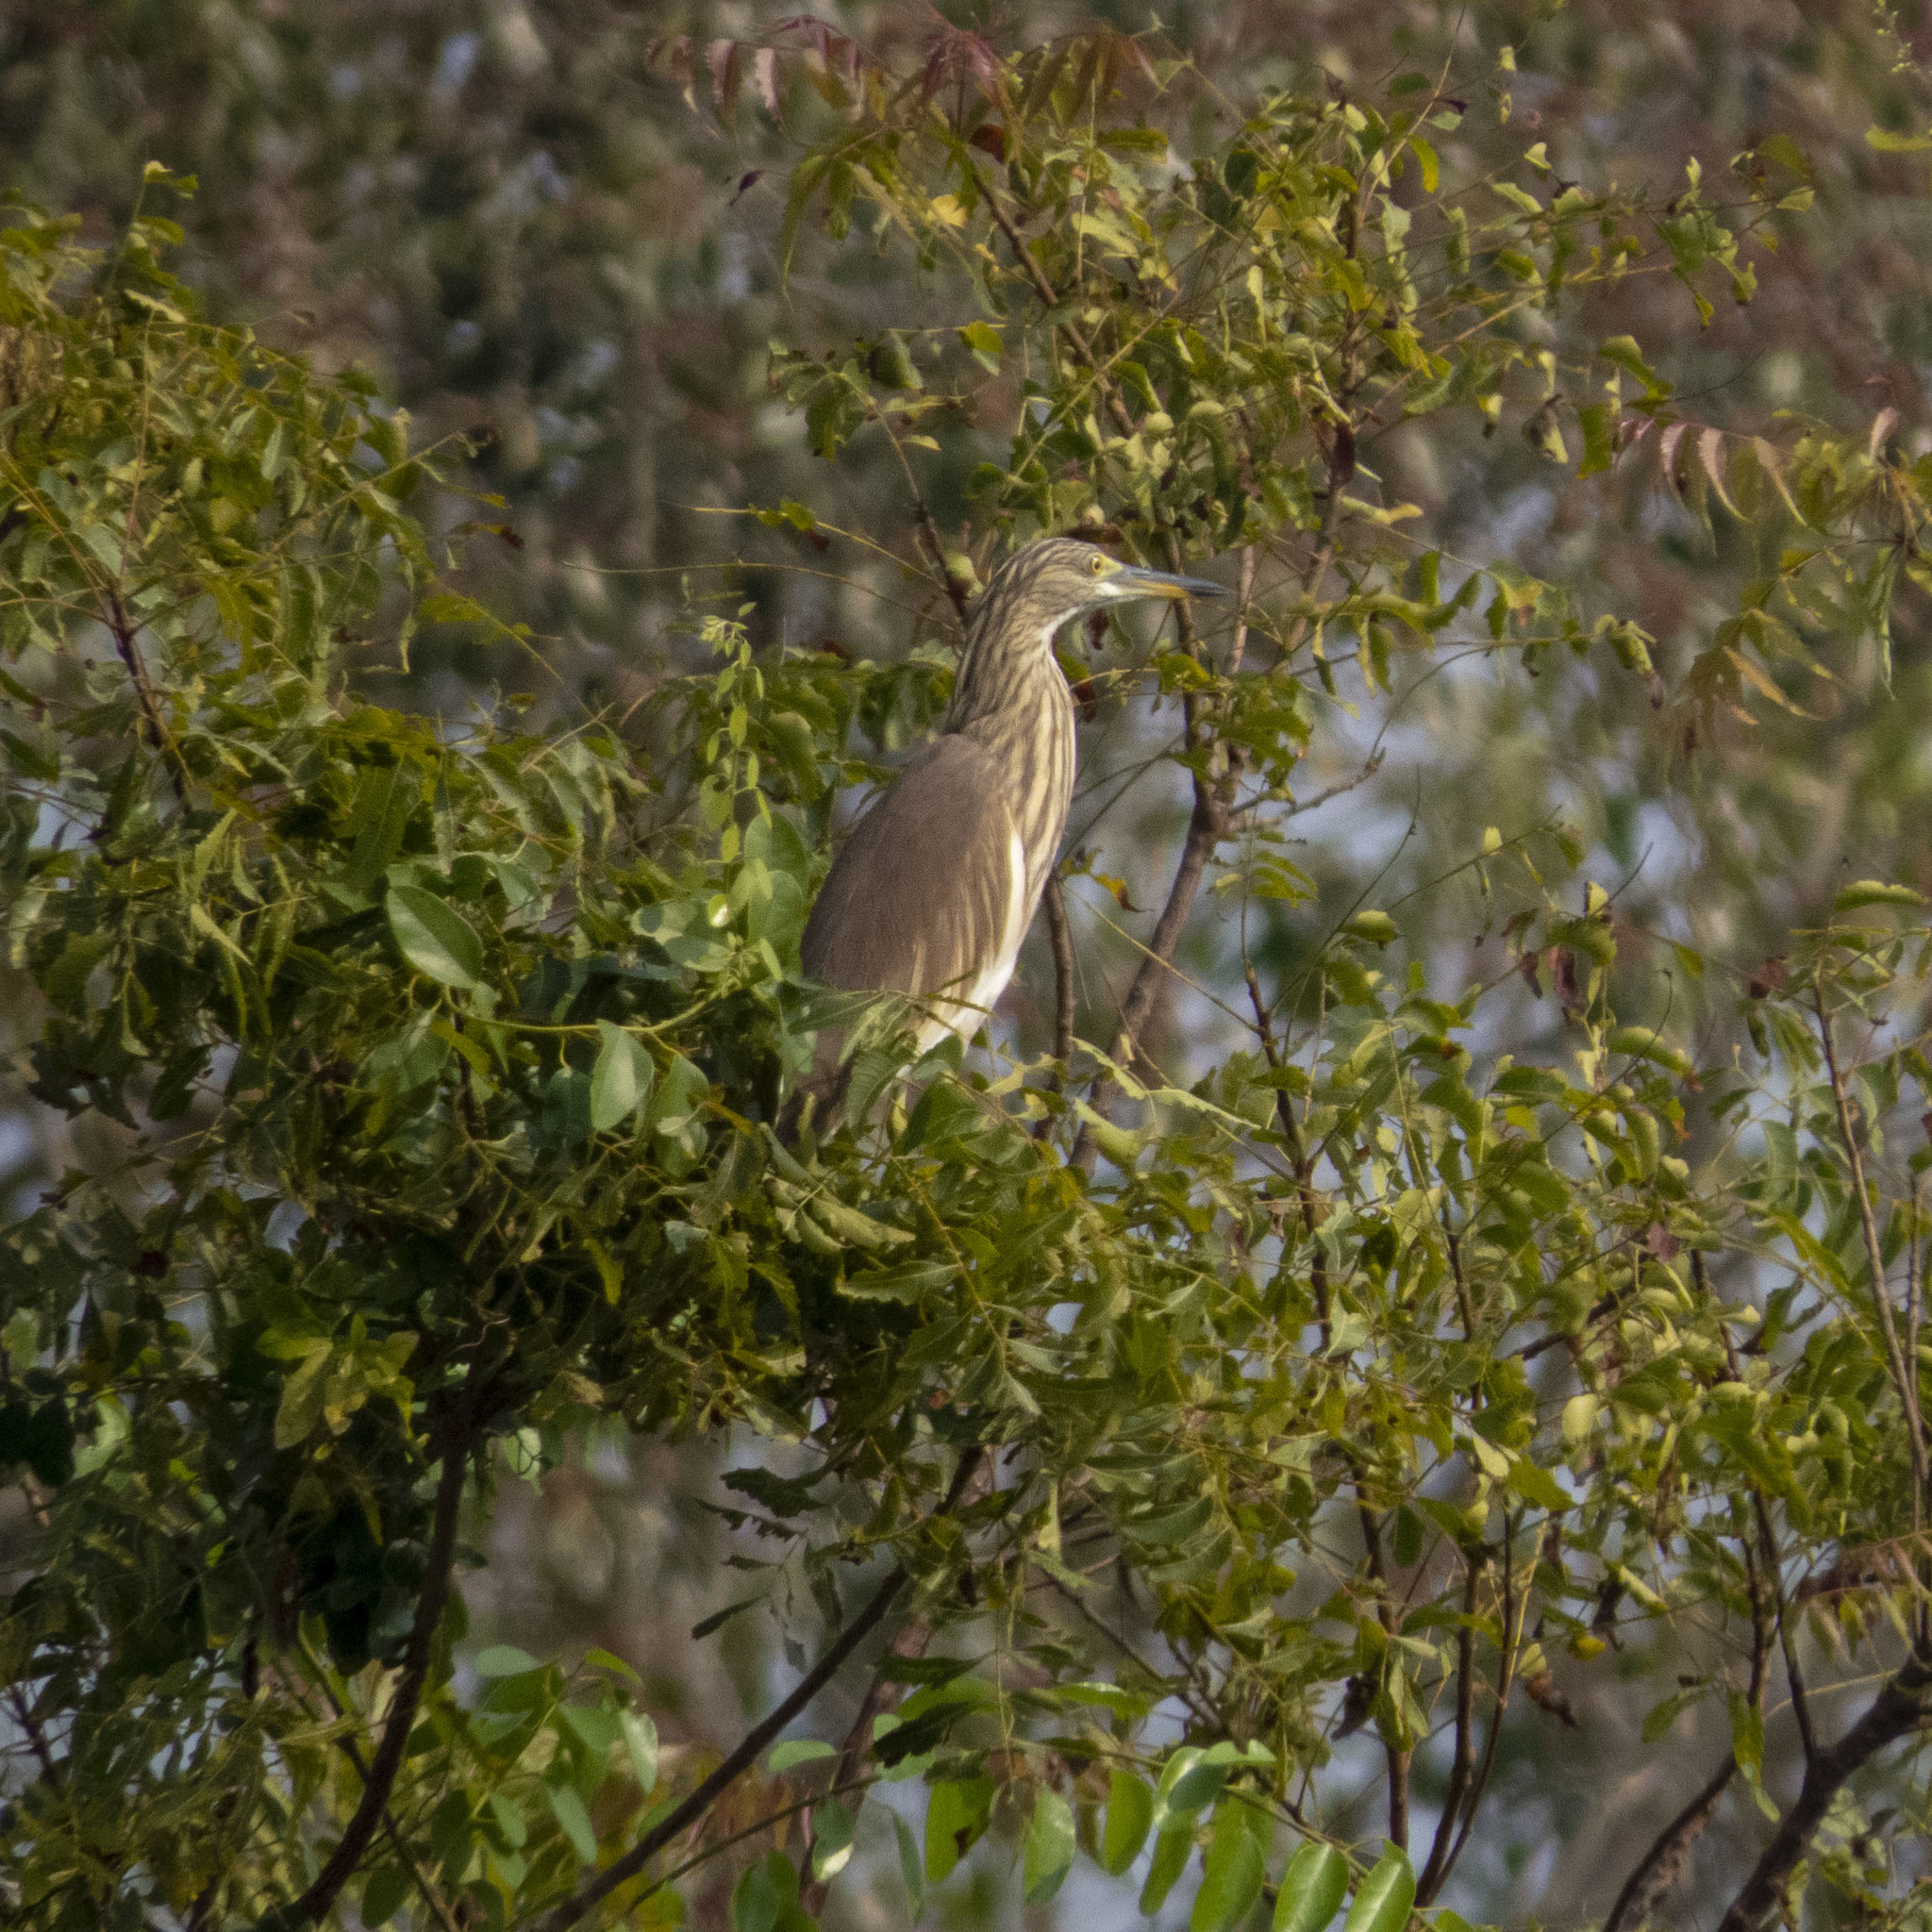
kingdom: Animalia
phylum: Chordata
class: Aves
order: Pelecaniformes
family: Ardeidae
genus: Ardeola
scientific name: Ardeola grayii
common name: Indian pond heron
